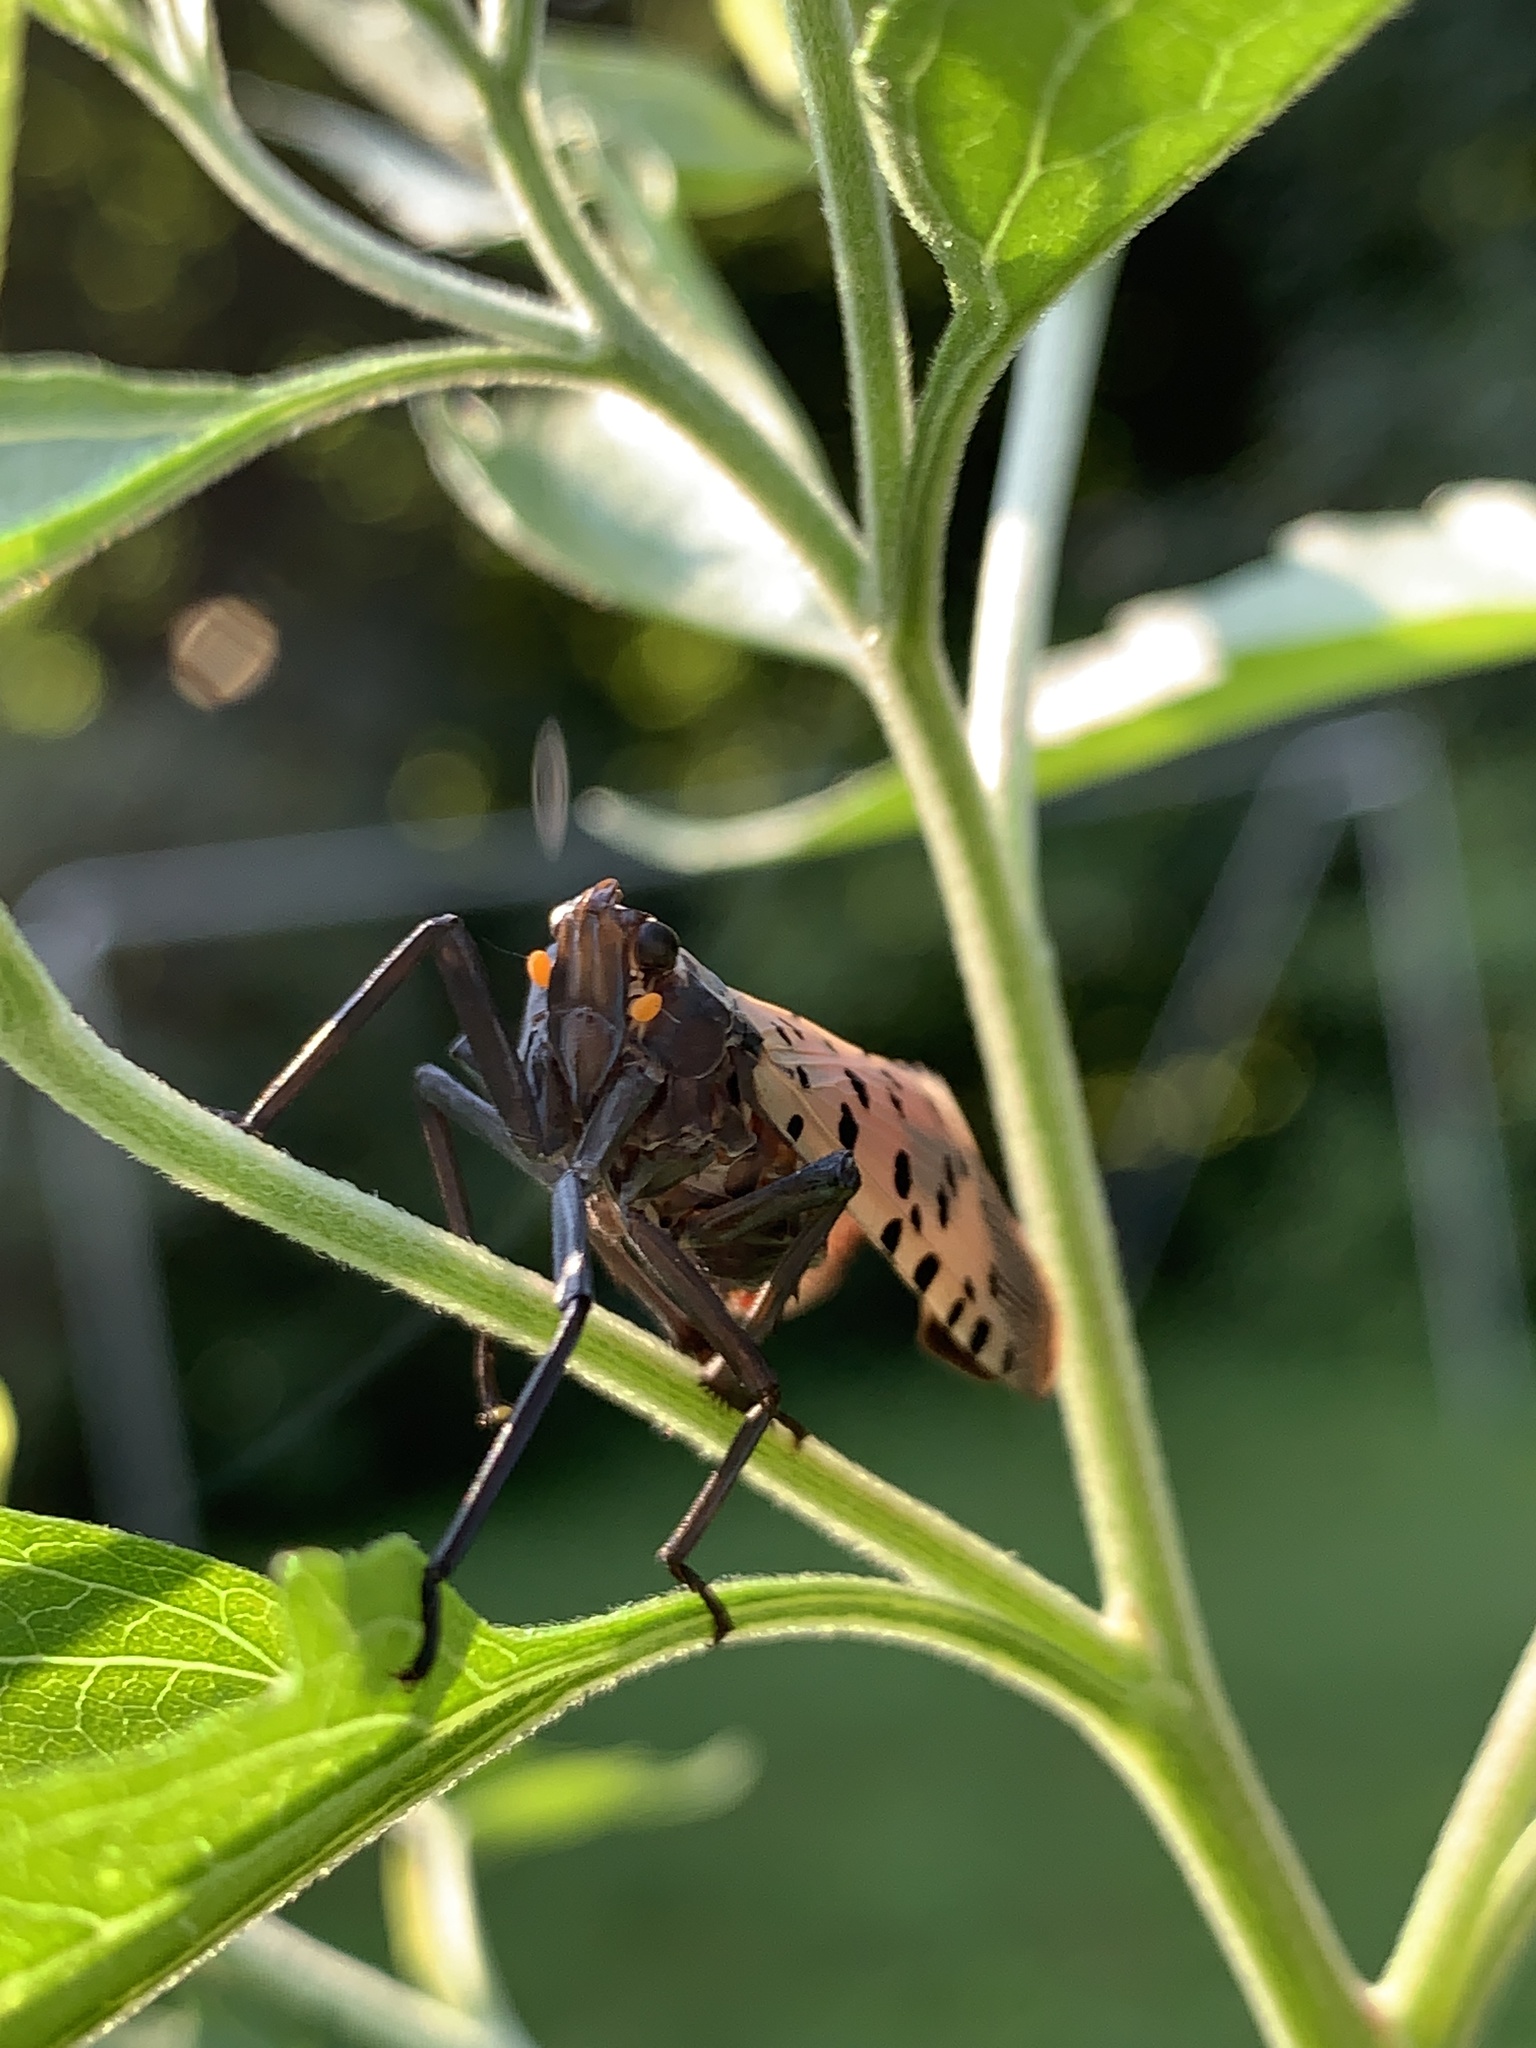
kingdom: Animalia
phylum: Arthropoda
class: Insecta
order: Hemiptera
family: Fulgoridae
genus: Lycorma
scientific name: Lycorma delicatula
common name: Spotted lanternfly
